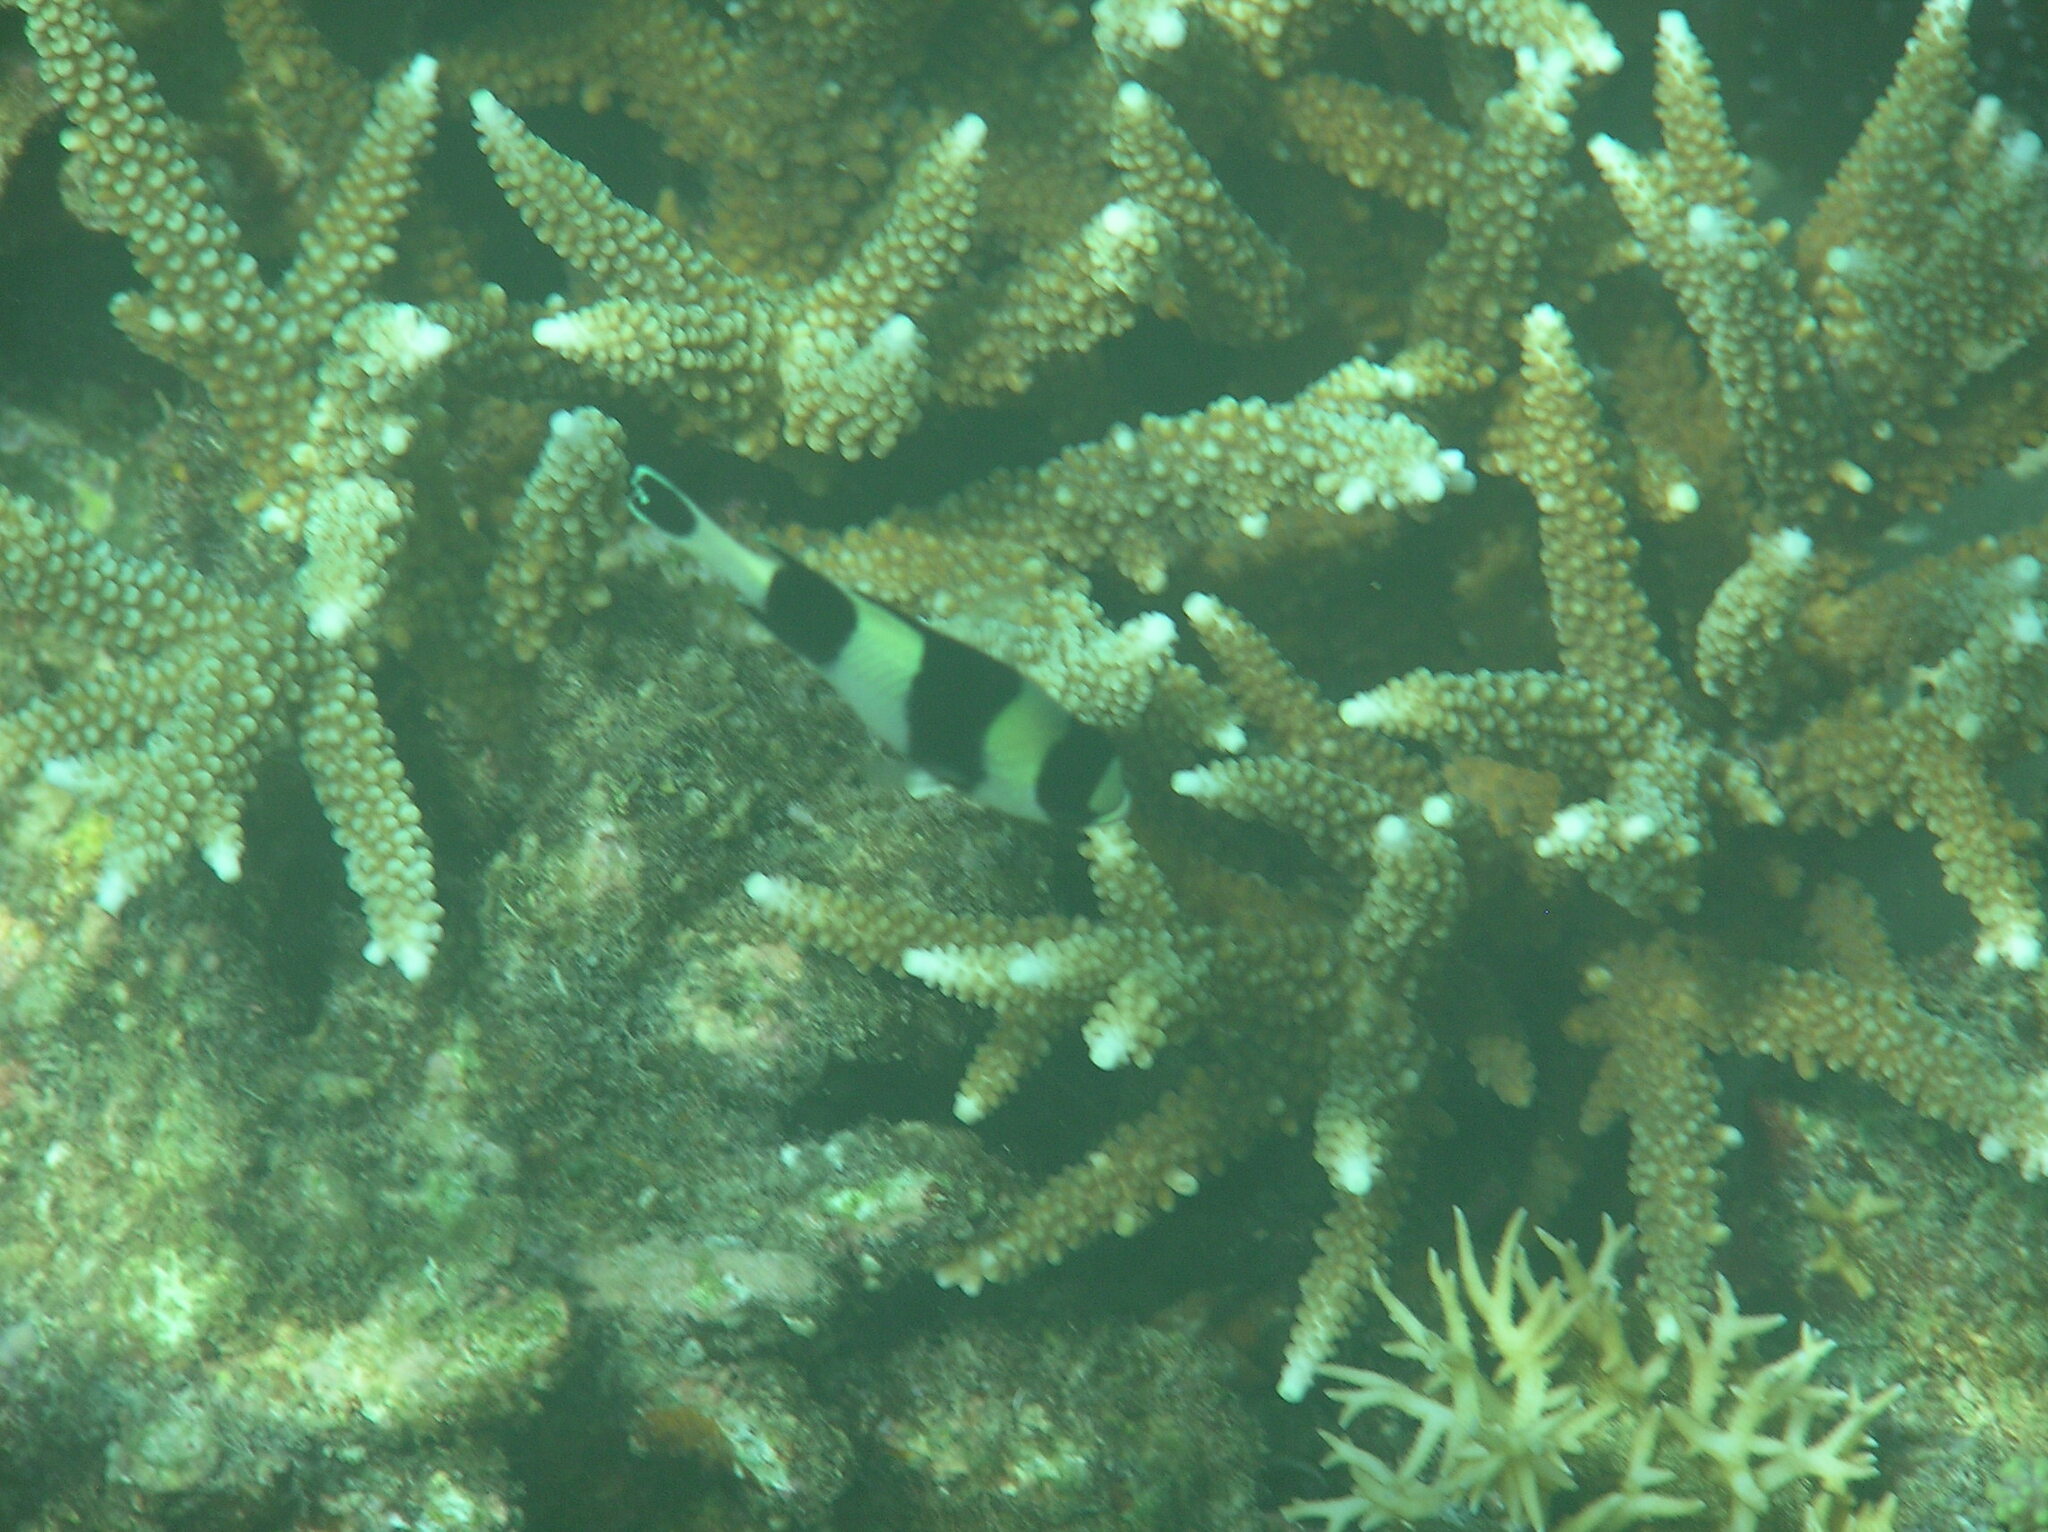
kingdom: Animalia
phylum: Chordata
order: Perciformes
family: Pomacentridae
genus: Dascyllus
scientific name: Dascyllus melanurus
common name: Black-tail dascyllus
